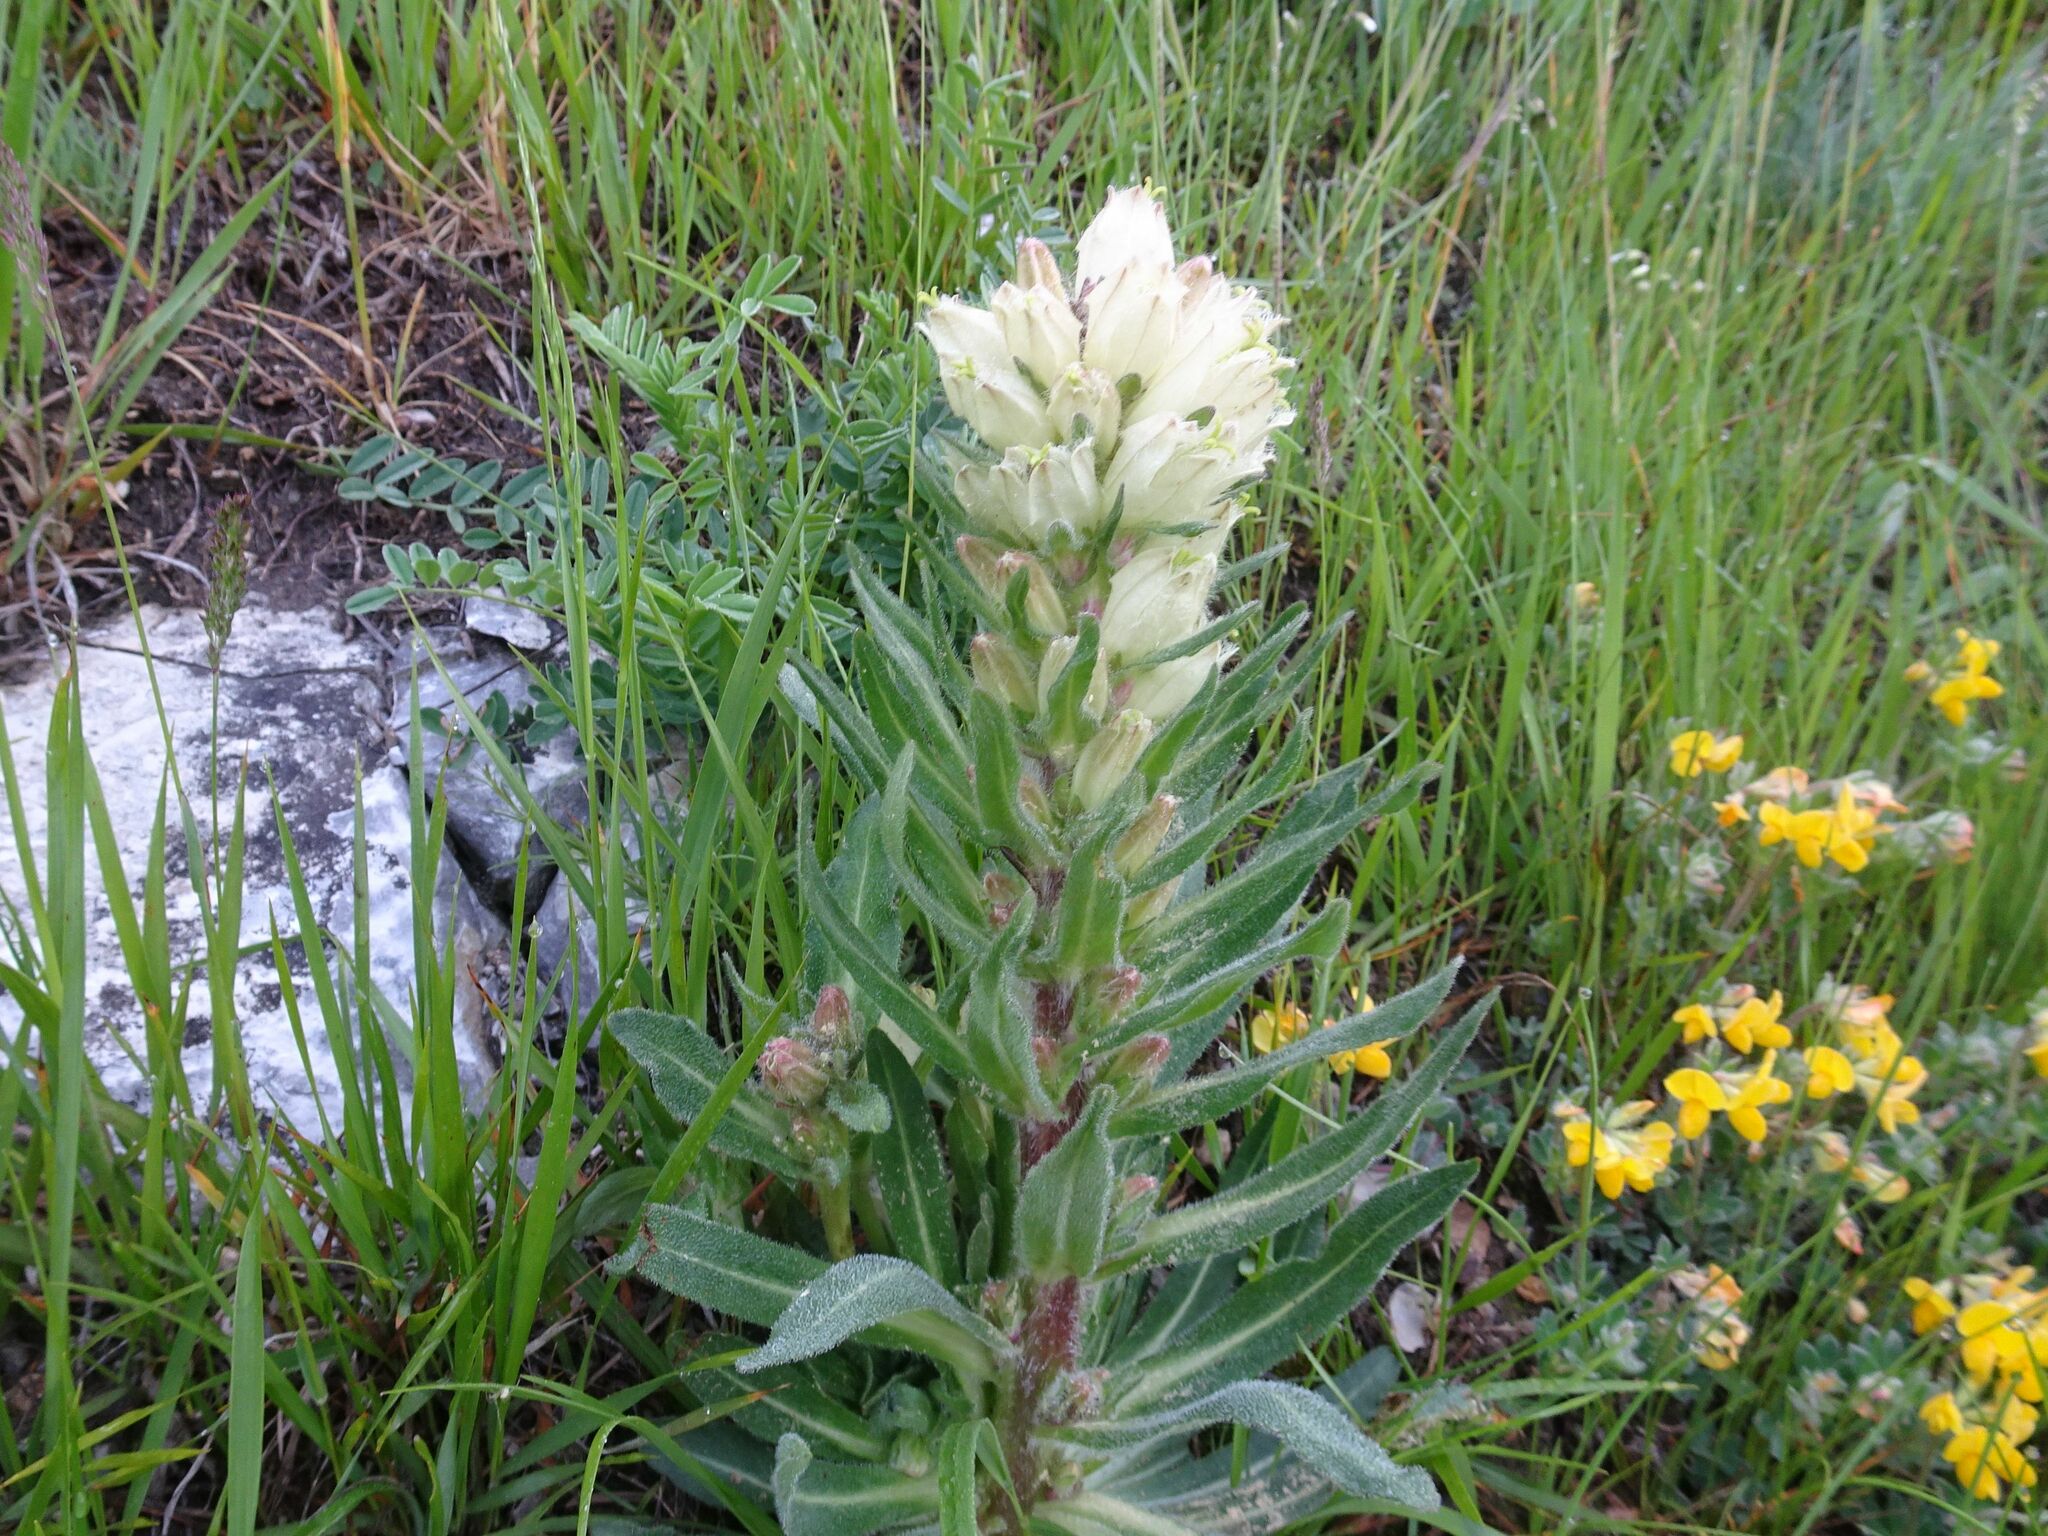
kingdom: Plantae
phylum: Tracheophyta
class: Magnoliopsida
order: Asterales
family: Campanulaceae
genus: Campanula
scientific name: Campanula thyrsoides
